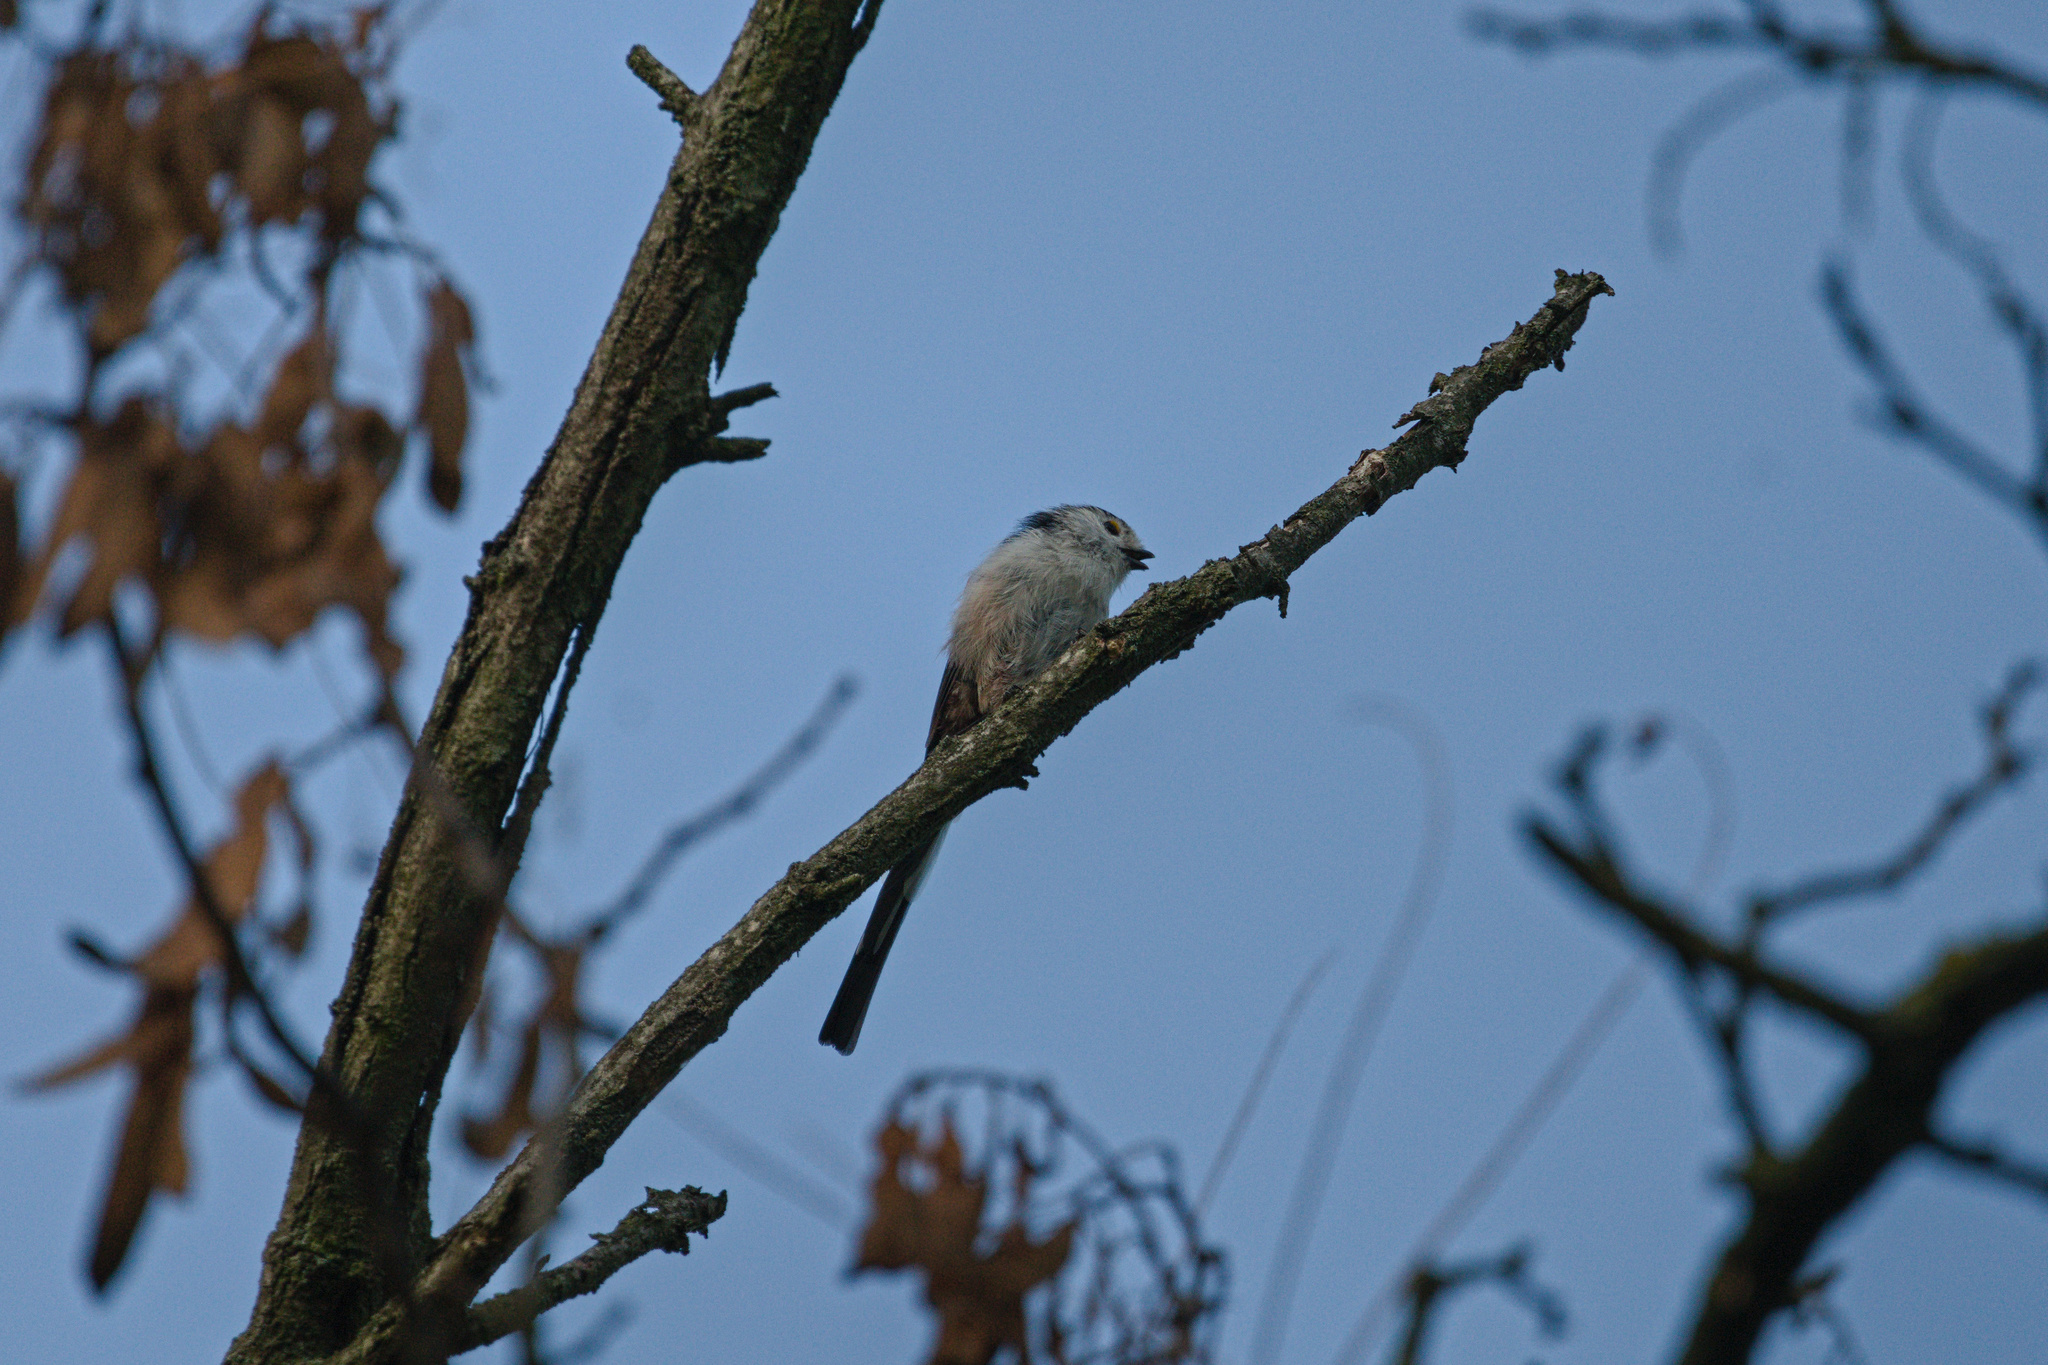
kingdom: Animalia
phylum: Chordata
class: Aves
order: Passeriformes
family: Aegithalidae
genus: Aegithalos
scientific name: Aegithalos caudatus
